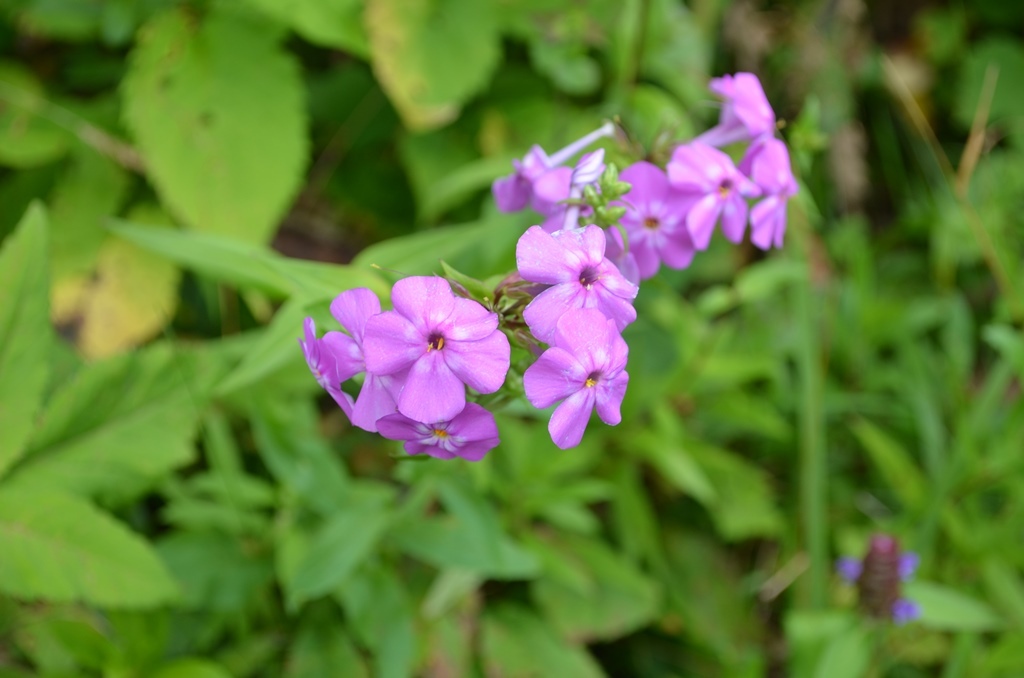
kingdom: Plantae
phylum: Tracheophyta
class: Magnoliopsida
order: Ericales
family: Polemoniaceae
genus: Phlox
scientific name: Phlox carolina
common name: Thick-leaf phlox
